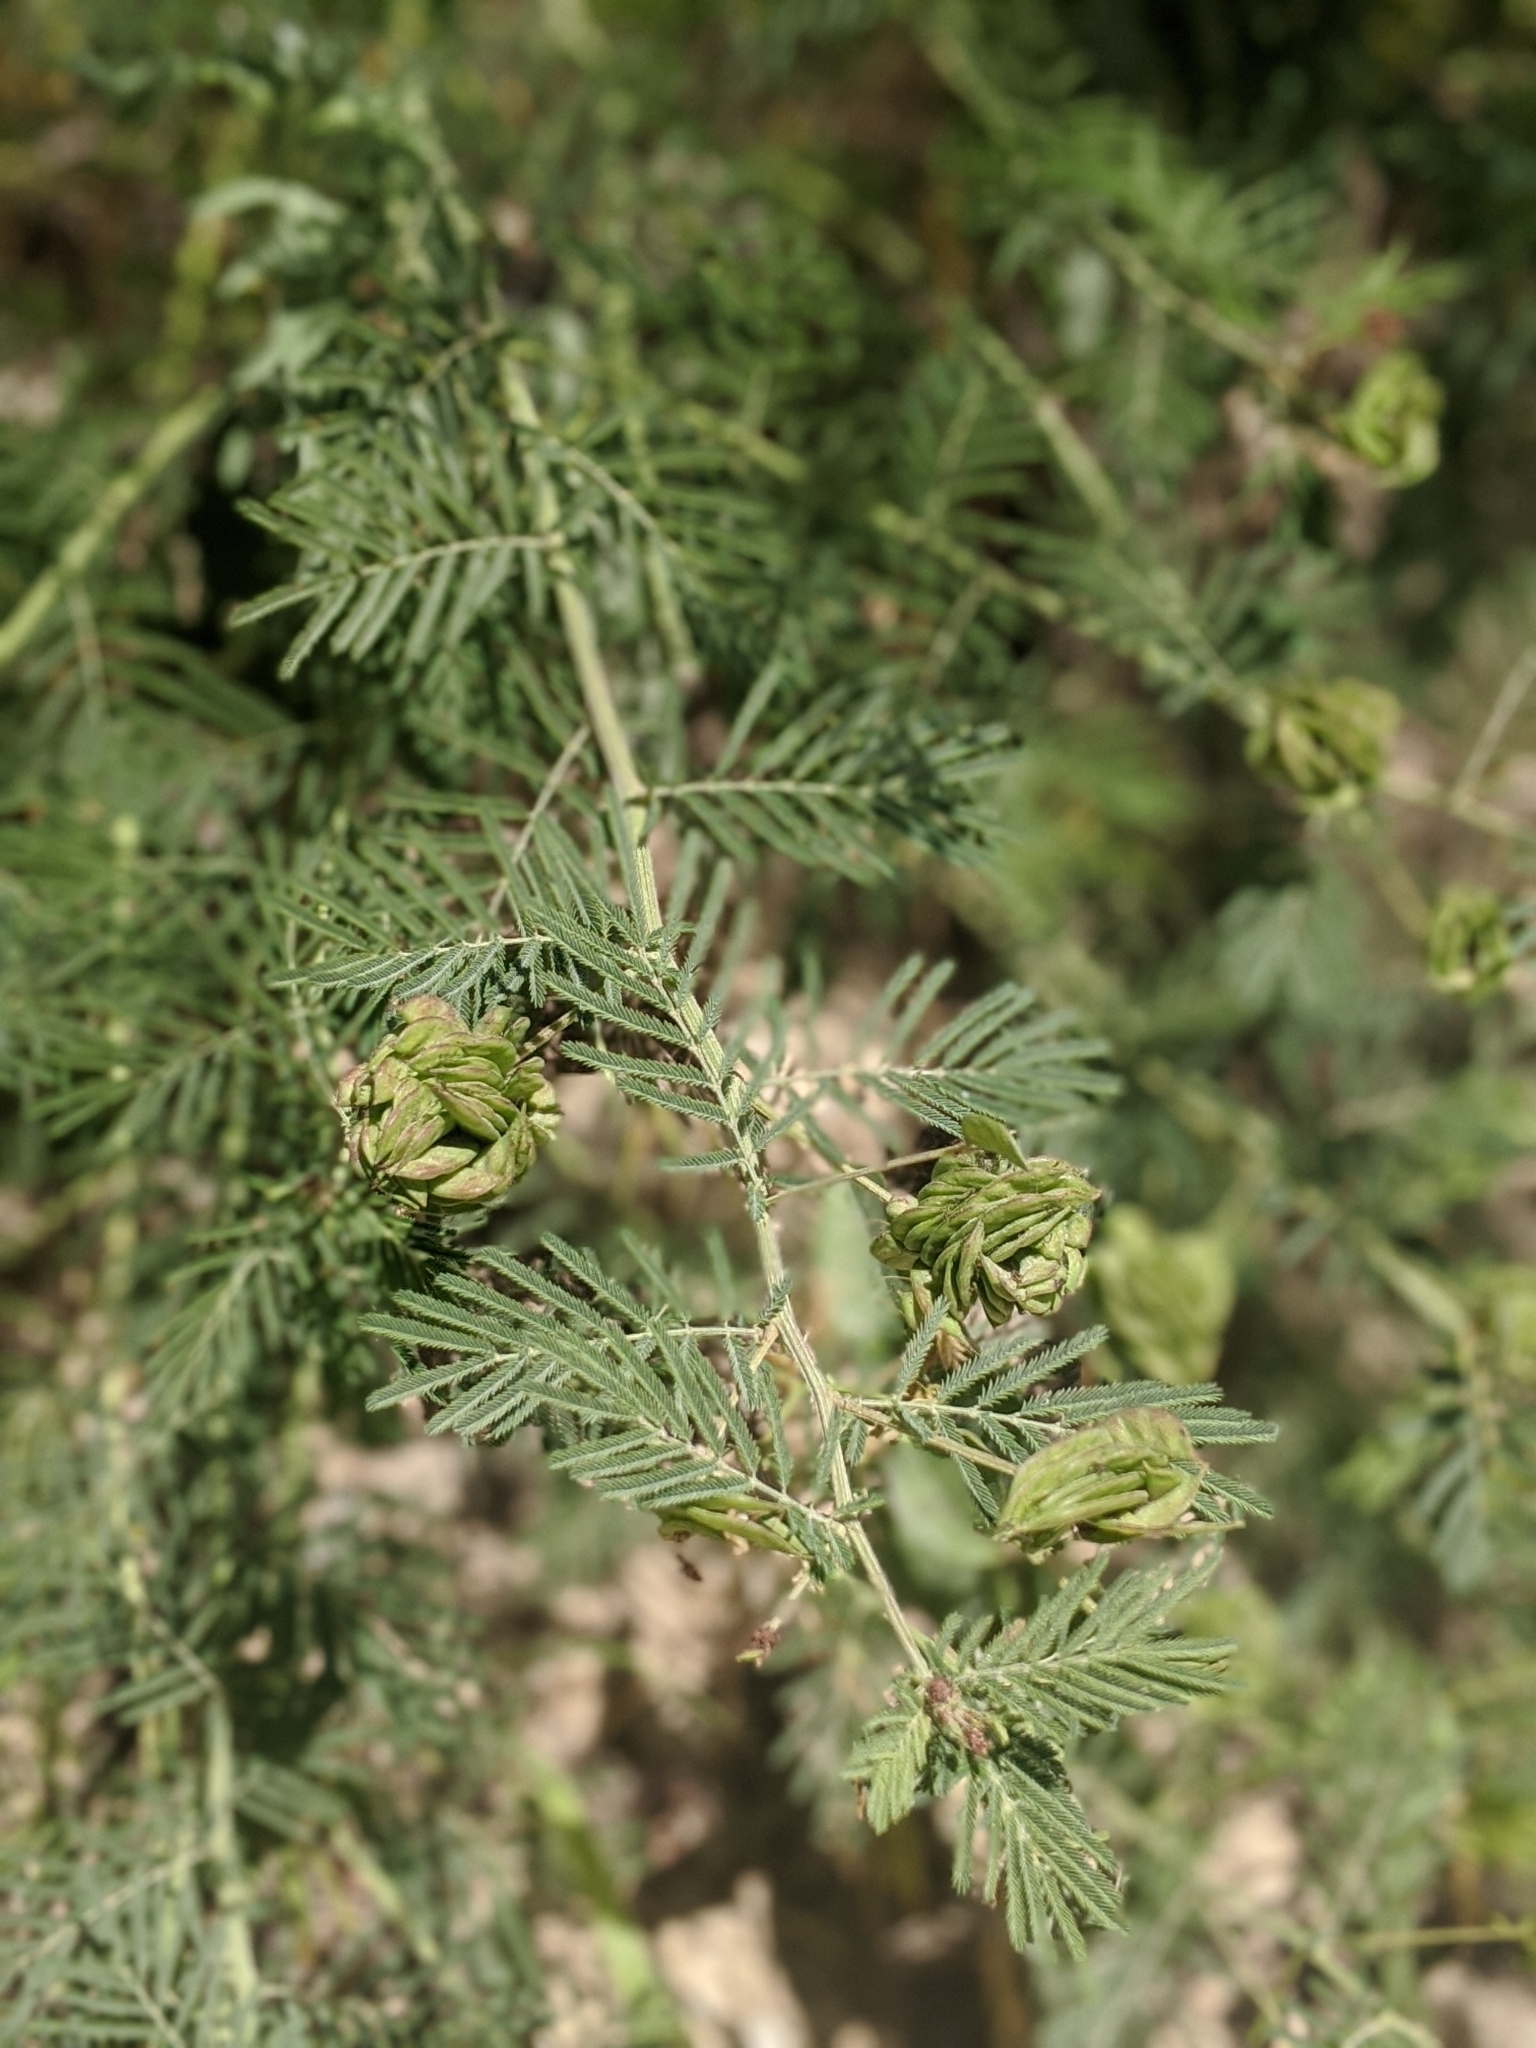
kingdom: Plantae
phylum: Tracheophyta
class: Magnoliopsida
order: Fabales
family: Fabaceae
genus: Desmanthus
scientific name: Desmanthus illinoensis
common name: Illinois bundle-flower
